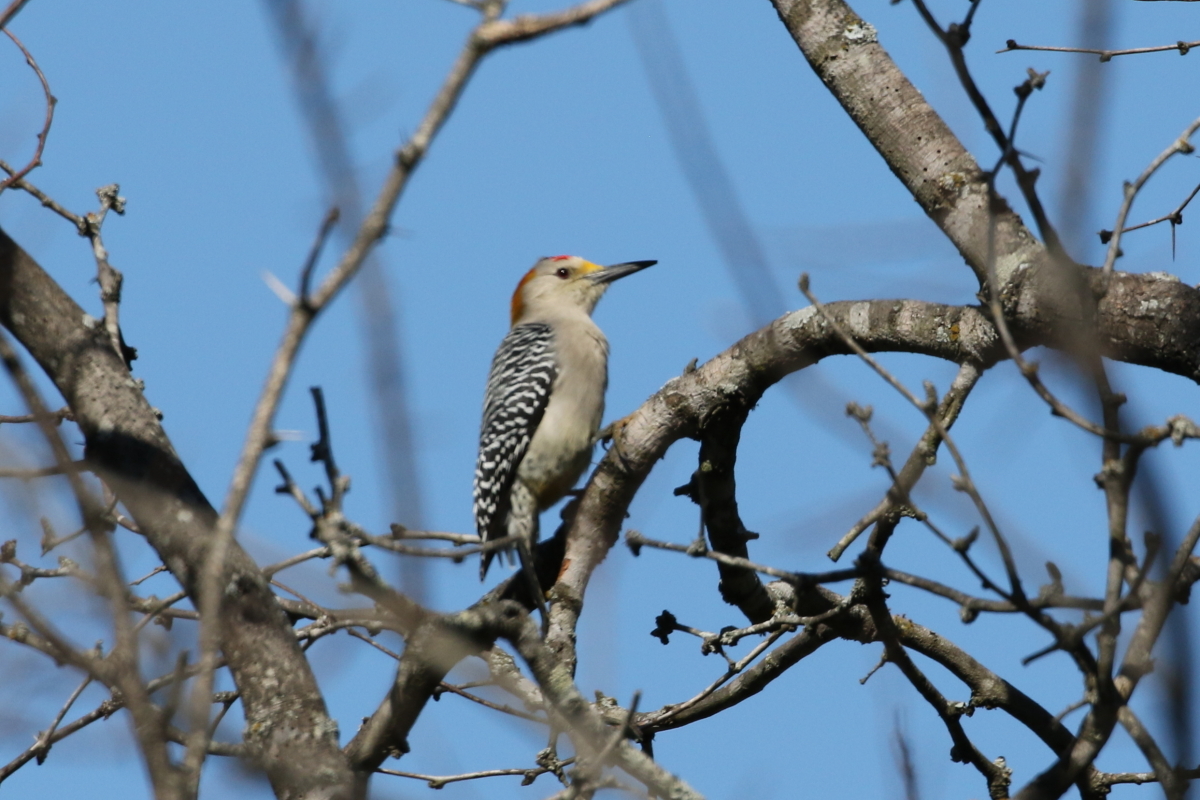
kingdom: Animalia
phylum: Chordata
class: Aves
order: Piciformes
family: Picidae
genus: Melanerpes
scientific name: Melanerpes aurifrons
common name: Golden-fronted woodpecker
